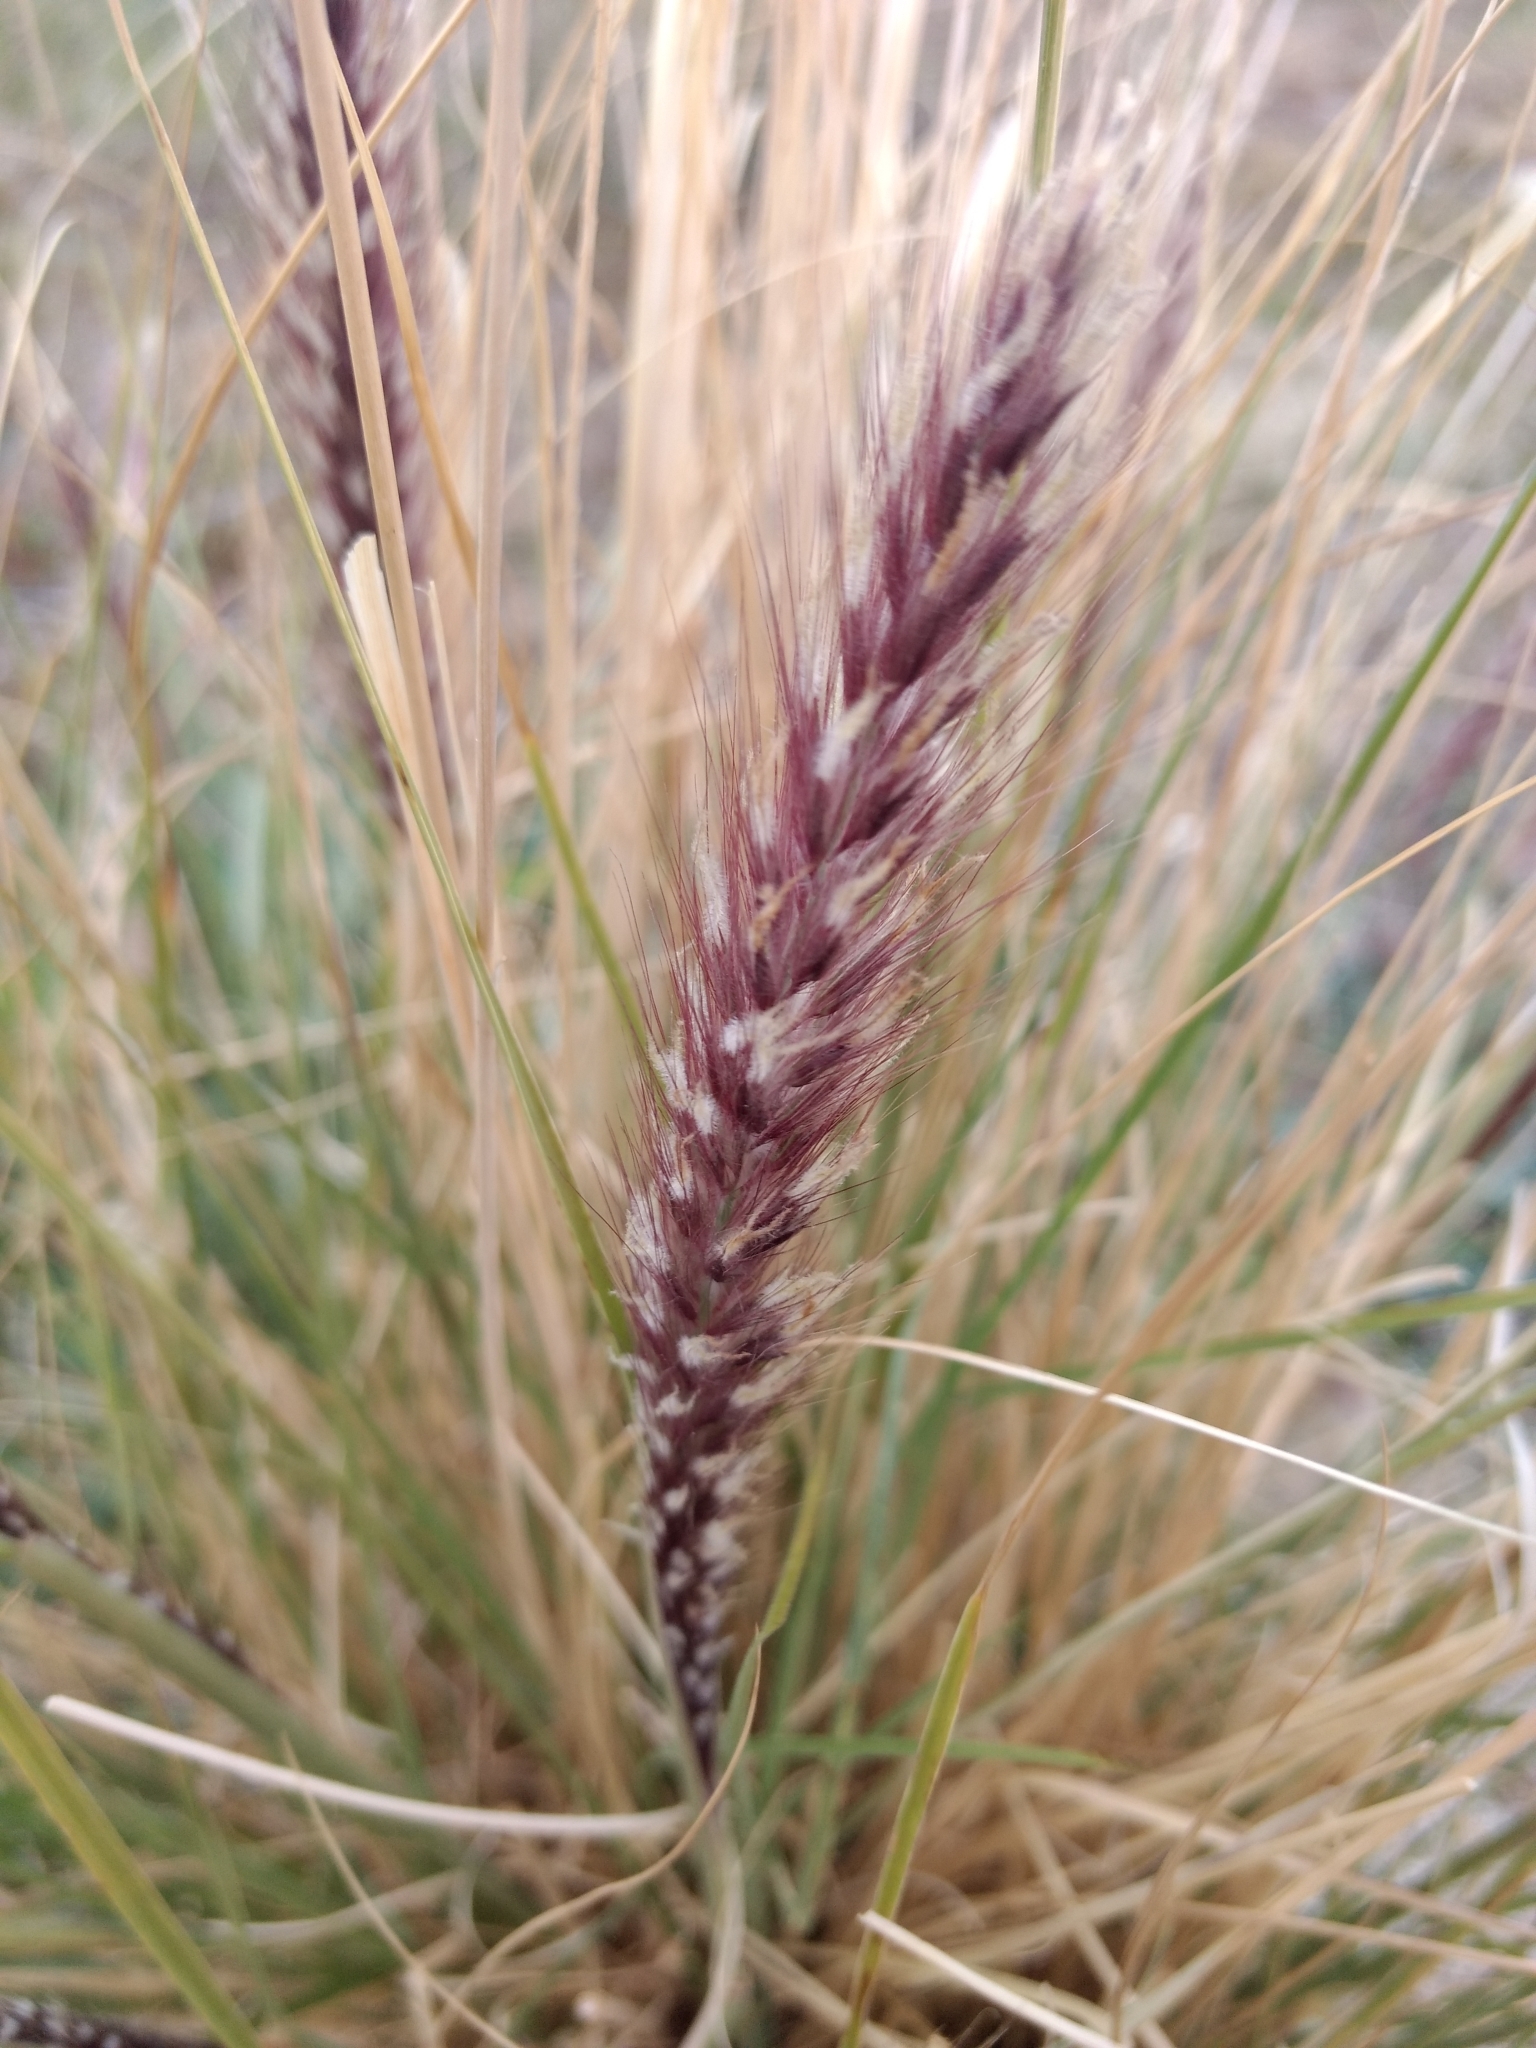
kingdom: Plantae
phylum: Tracheophyta
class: Liliopsida
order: Poales
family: Poaceae
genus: Cenchrus
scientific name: Cenchrus setaceus
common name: Crimson fountaingrass
